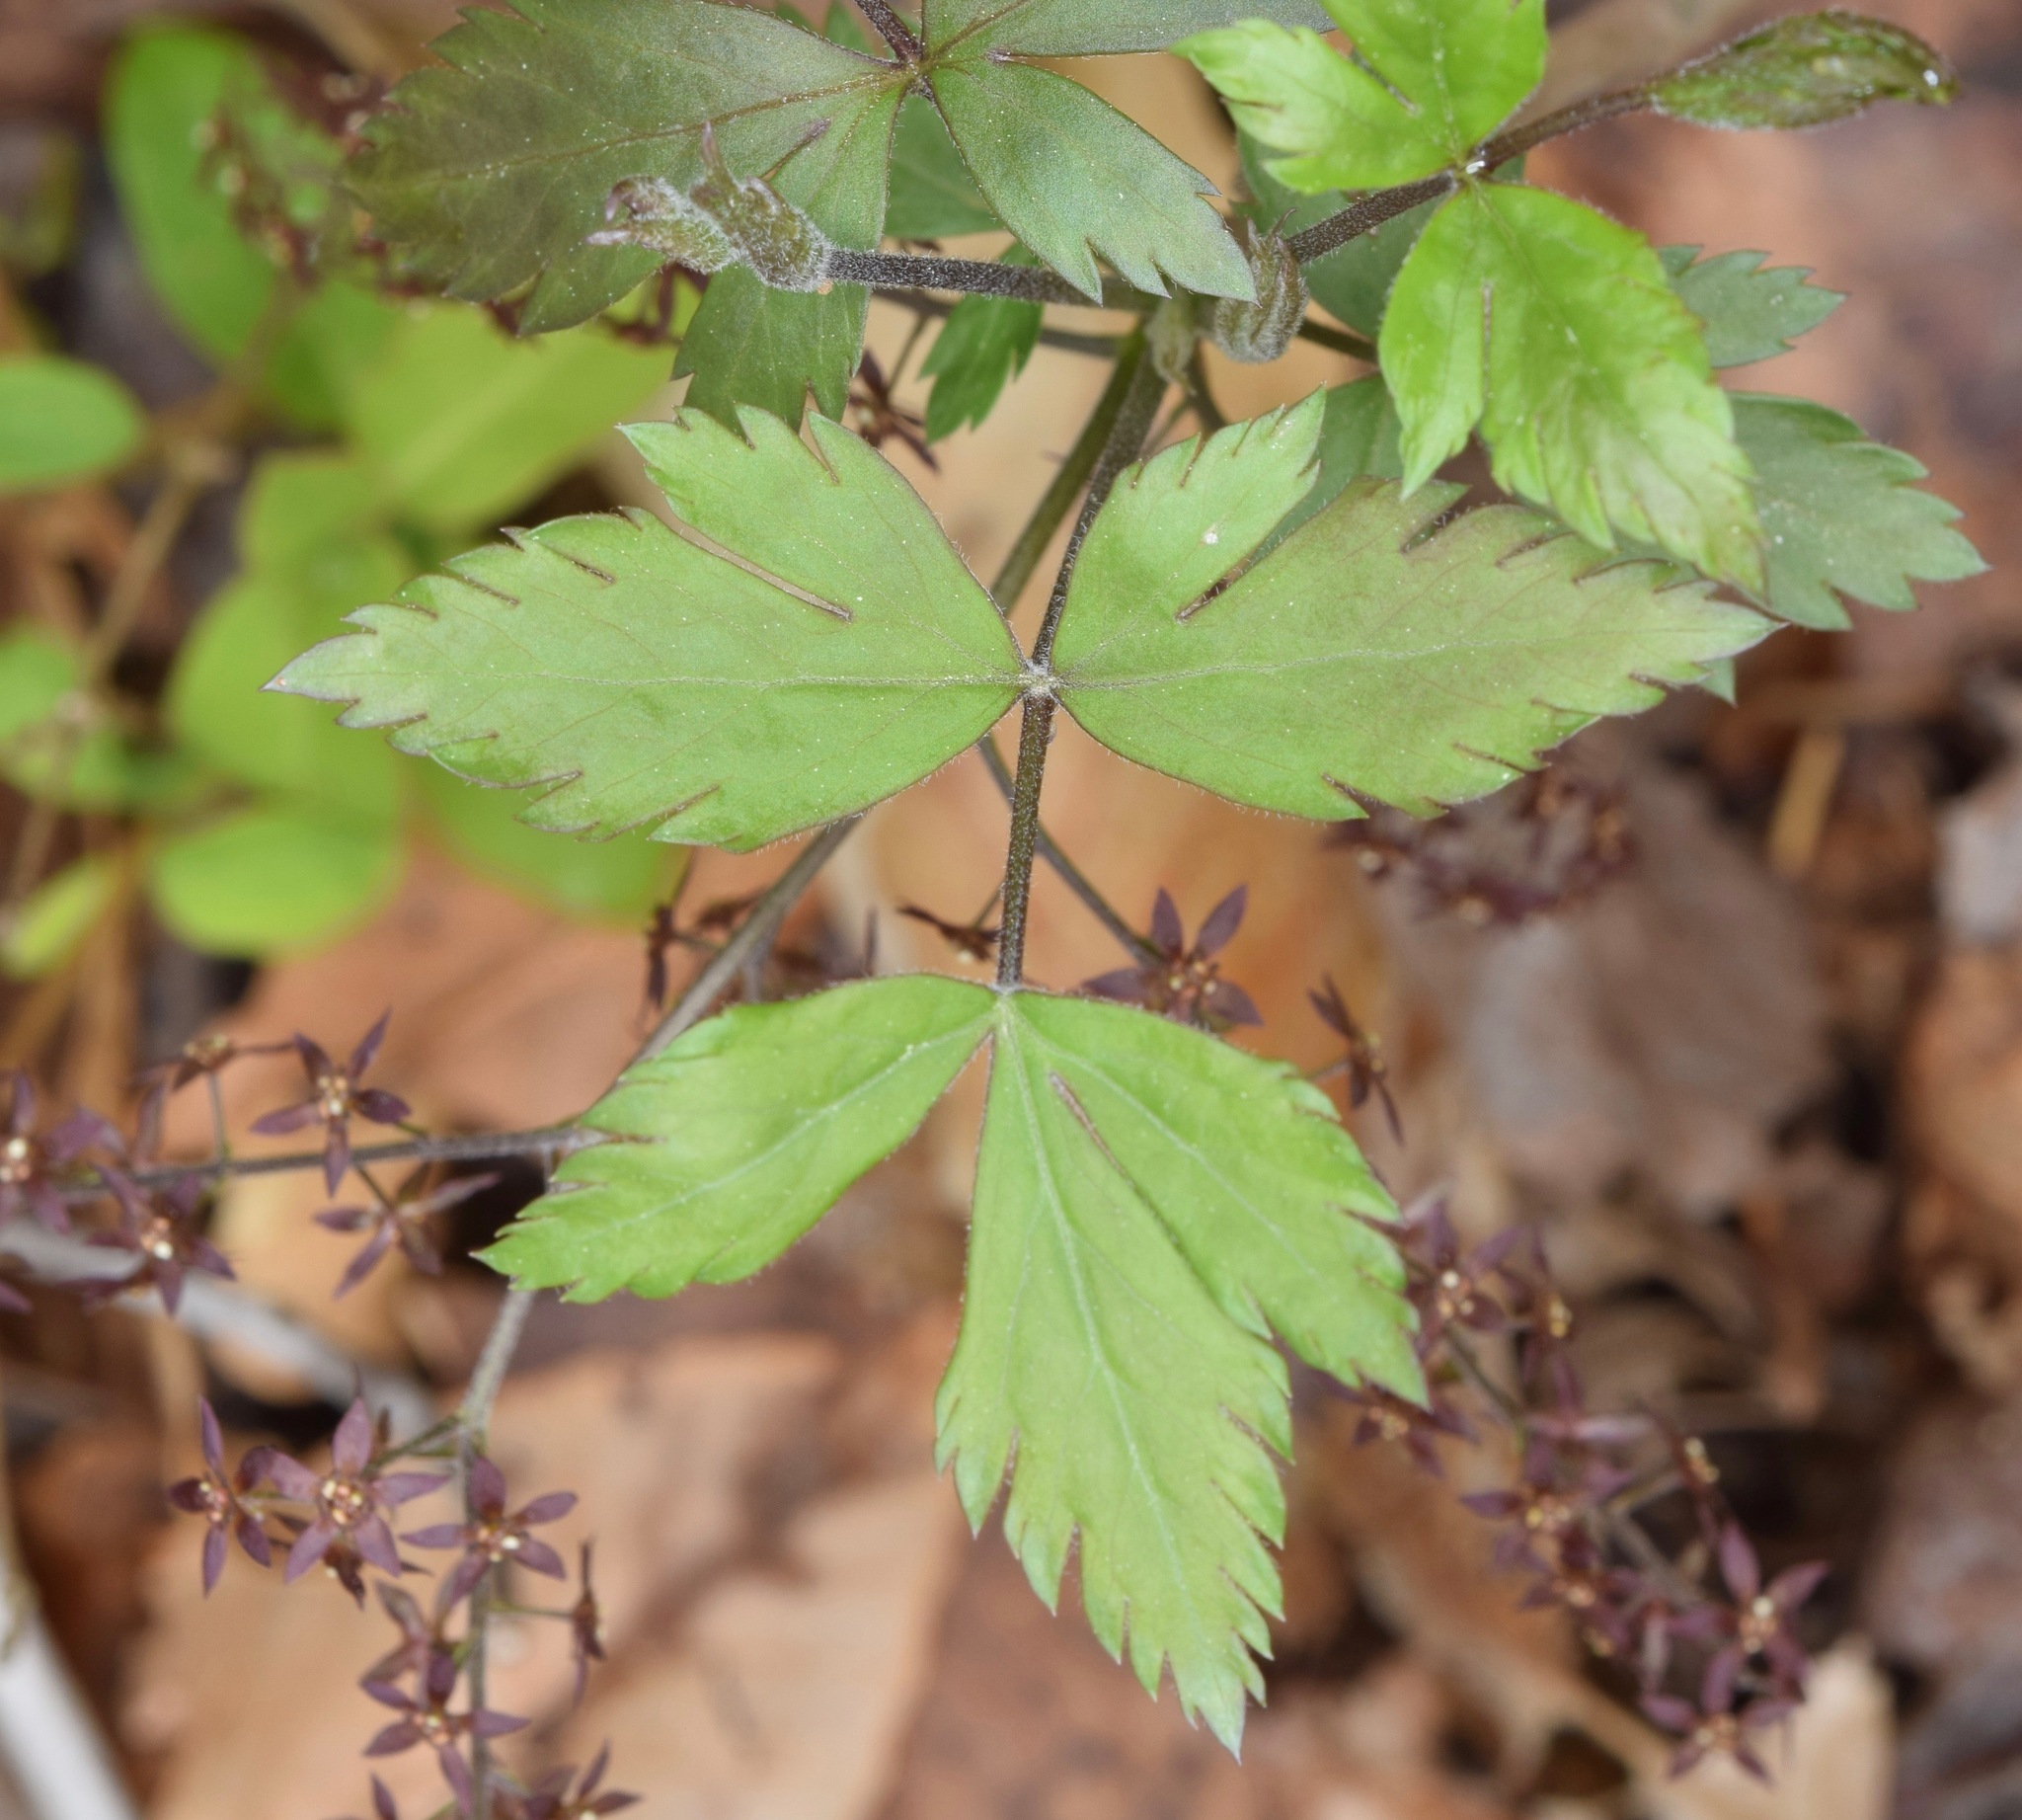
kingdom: Plantae
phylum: Tracheophyta
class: Magnoliopsida
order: Ranunculales
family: Ranunculaceae
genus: Xanthorhiza
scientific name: Xanthorhiza simplicissima
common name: Yellowroot
